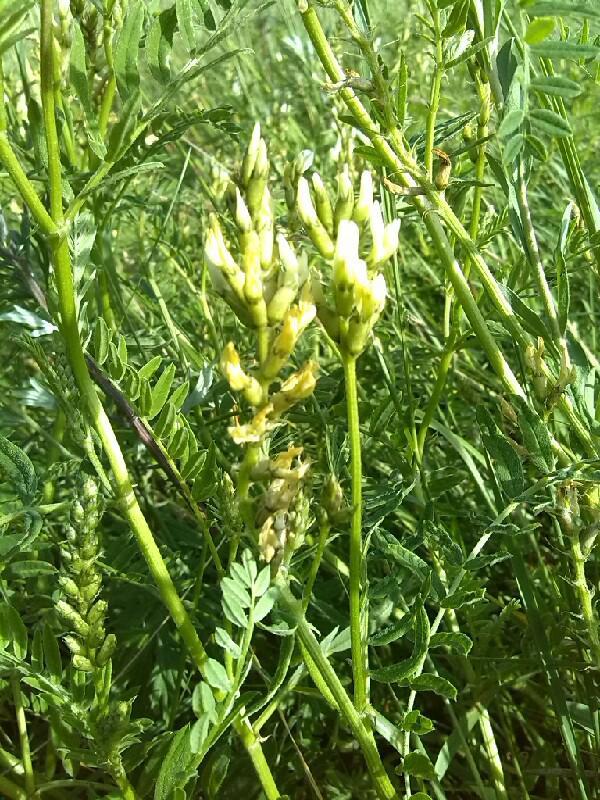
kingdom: Plantae
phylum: Tracheophyta
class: Magnoliopsida
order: Fabales
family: Fabaceae
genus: Astragalus
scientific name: Astragalus glycyphyllos
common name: Wild liquorice
